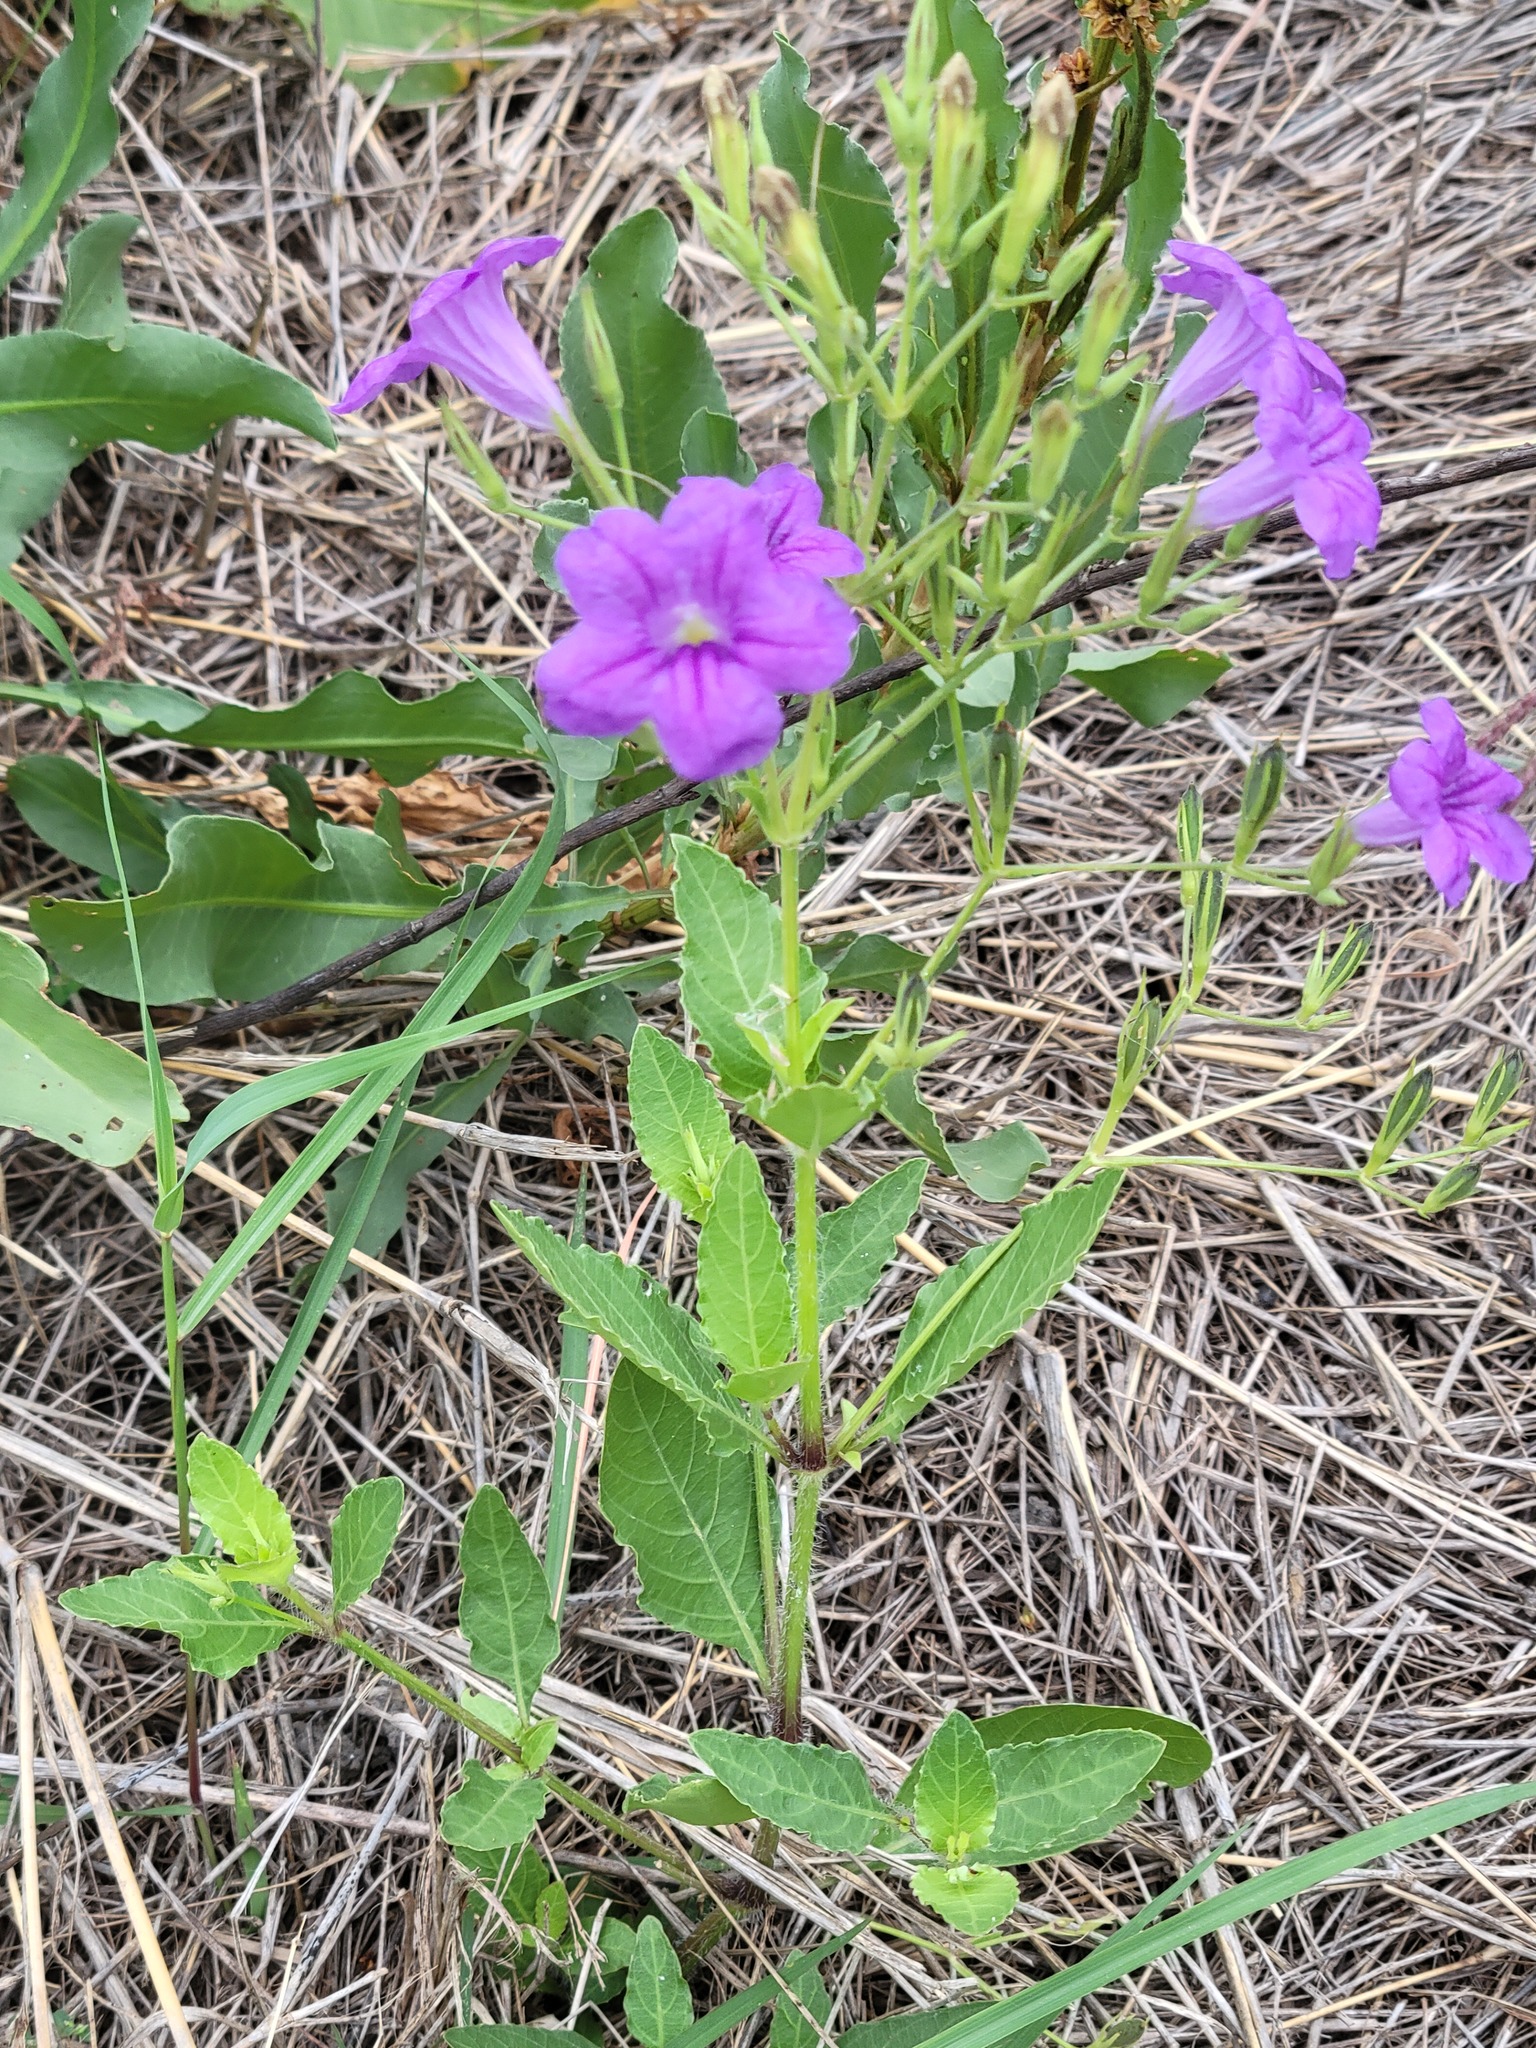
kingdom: Plantae
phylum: Tracheophyta
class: Magnoliopsida
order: Lamiales
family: Acanthaceae
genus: Ruellia
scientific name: Ruellia ciliatiflora
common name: Hairyflower wild petunia
